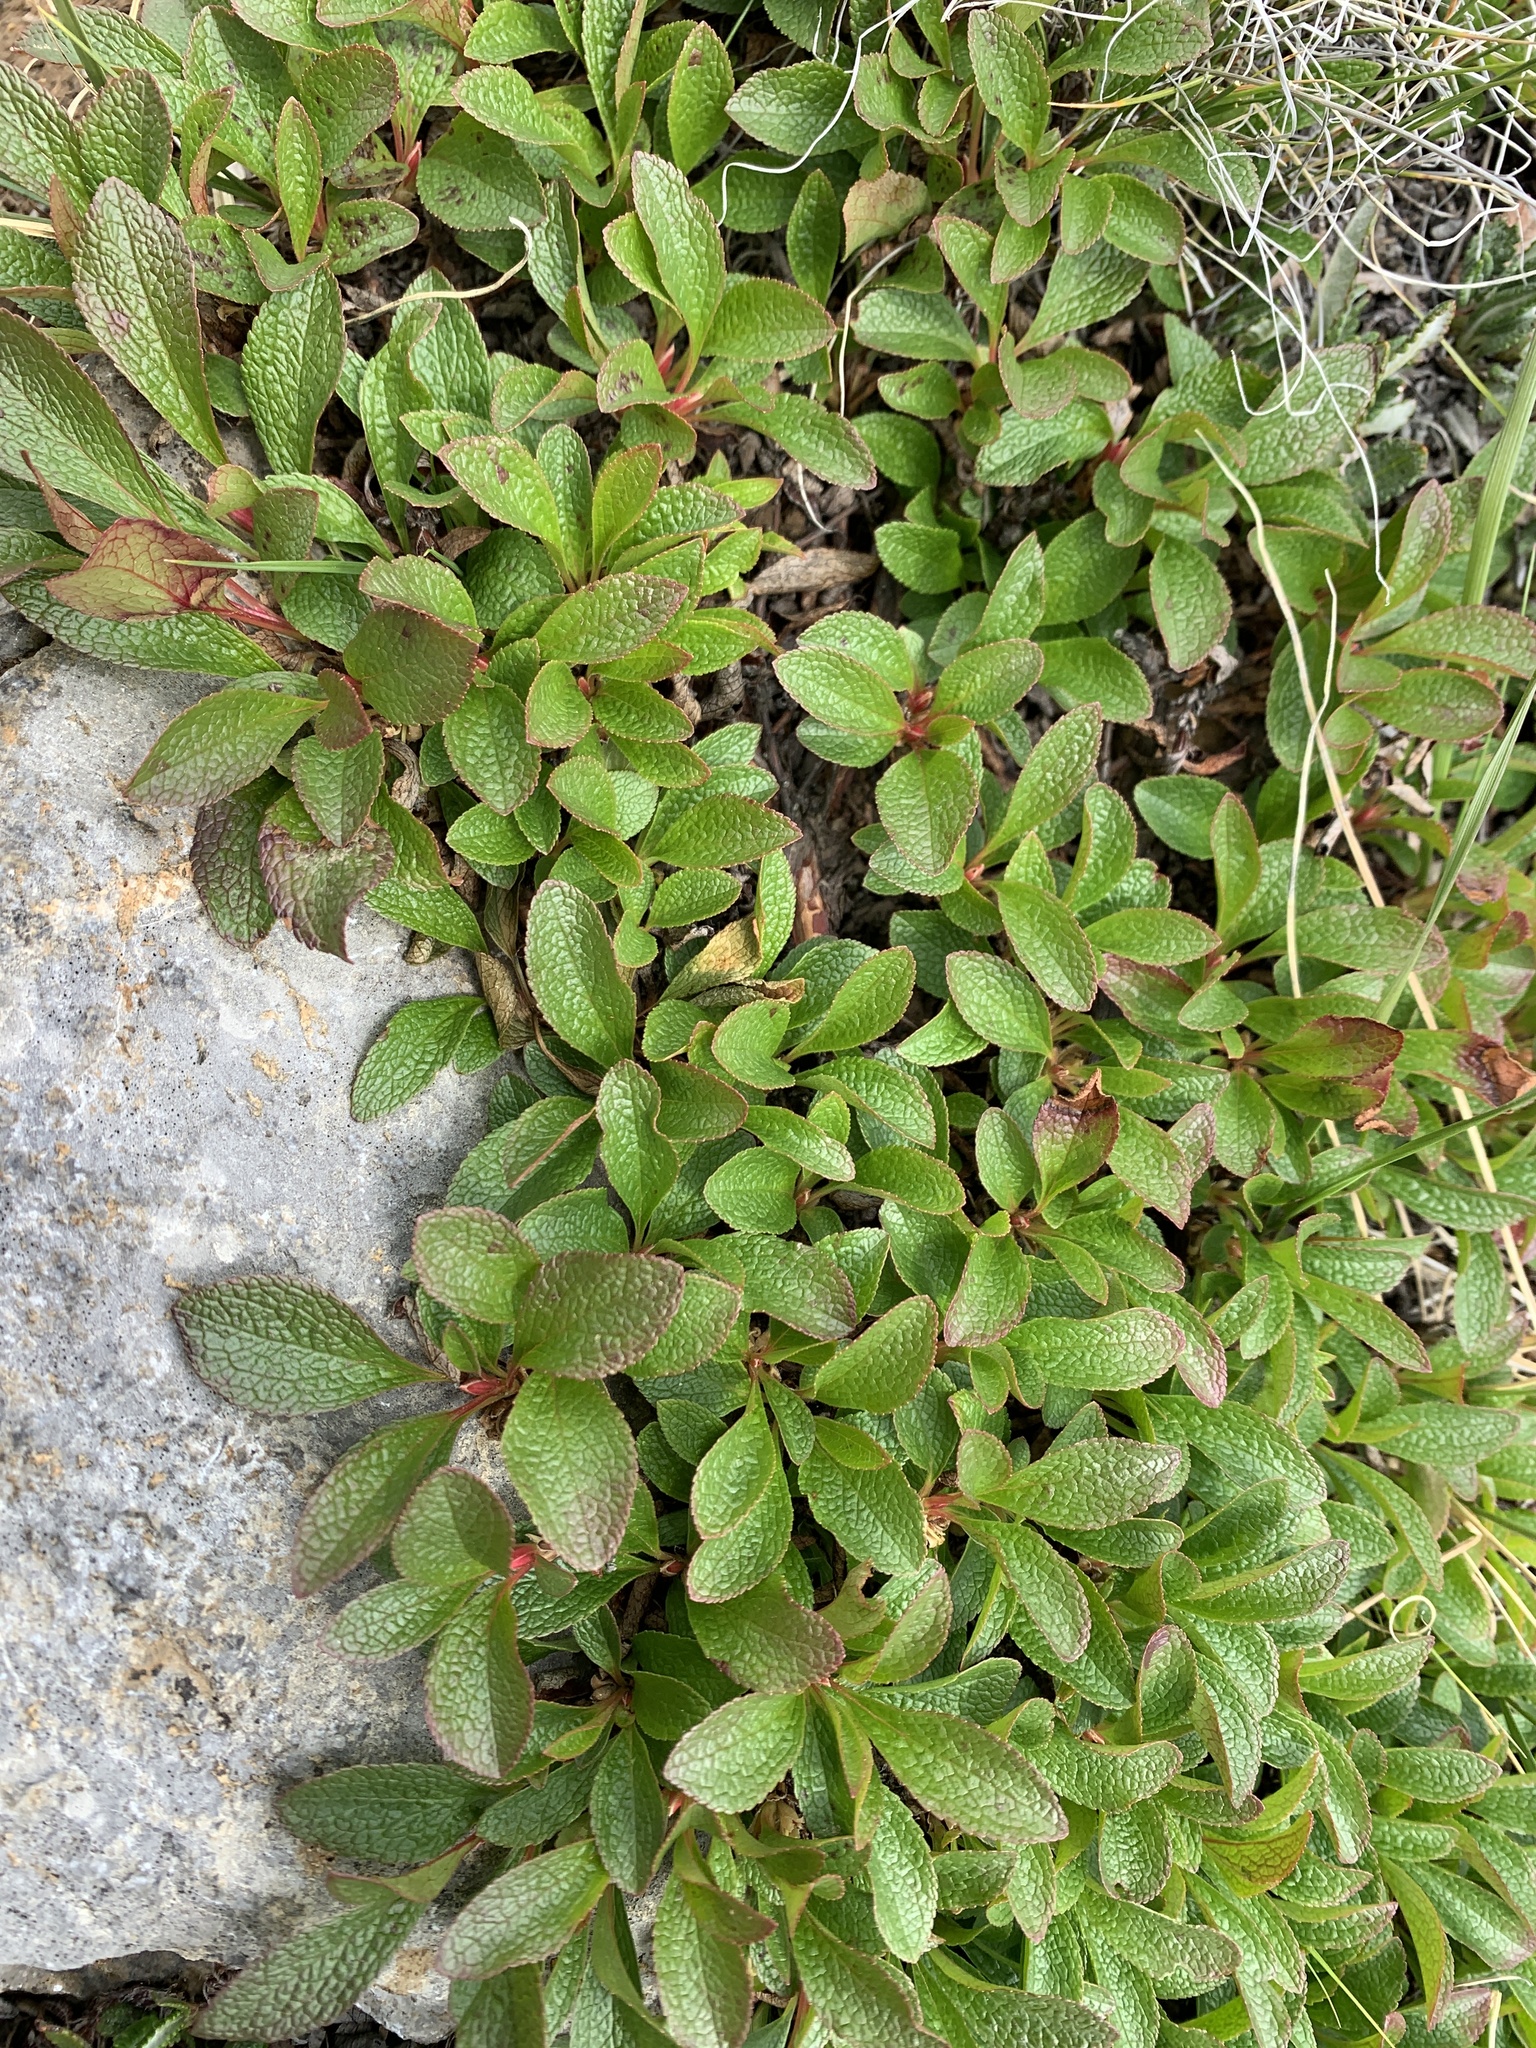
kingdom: Plantae
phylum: Tracheophyta
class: Magnoliopsida
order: Ericales
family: Ericaceae
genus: Arctostaphylos
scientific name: Arctostaphylos rubra
